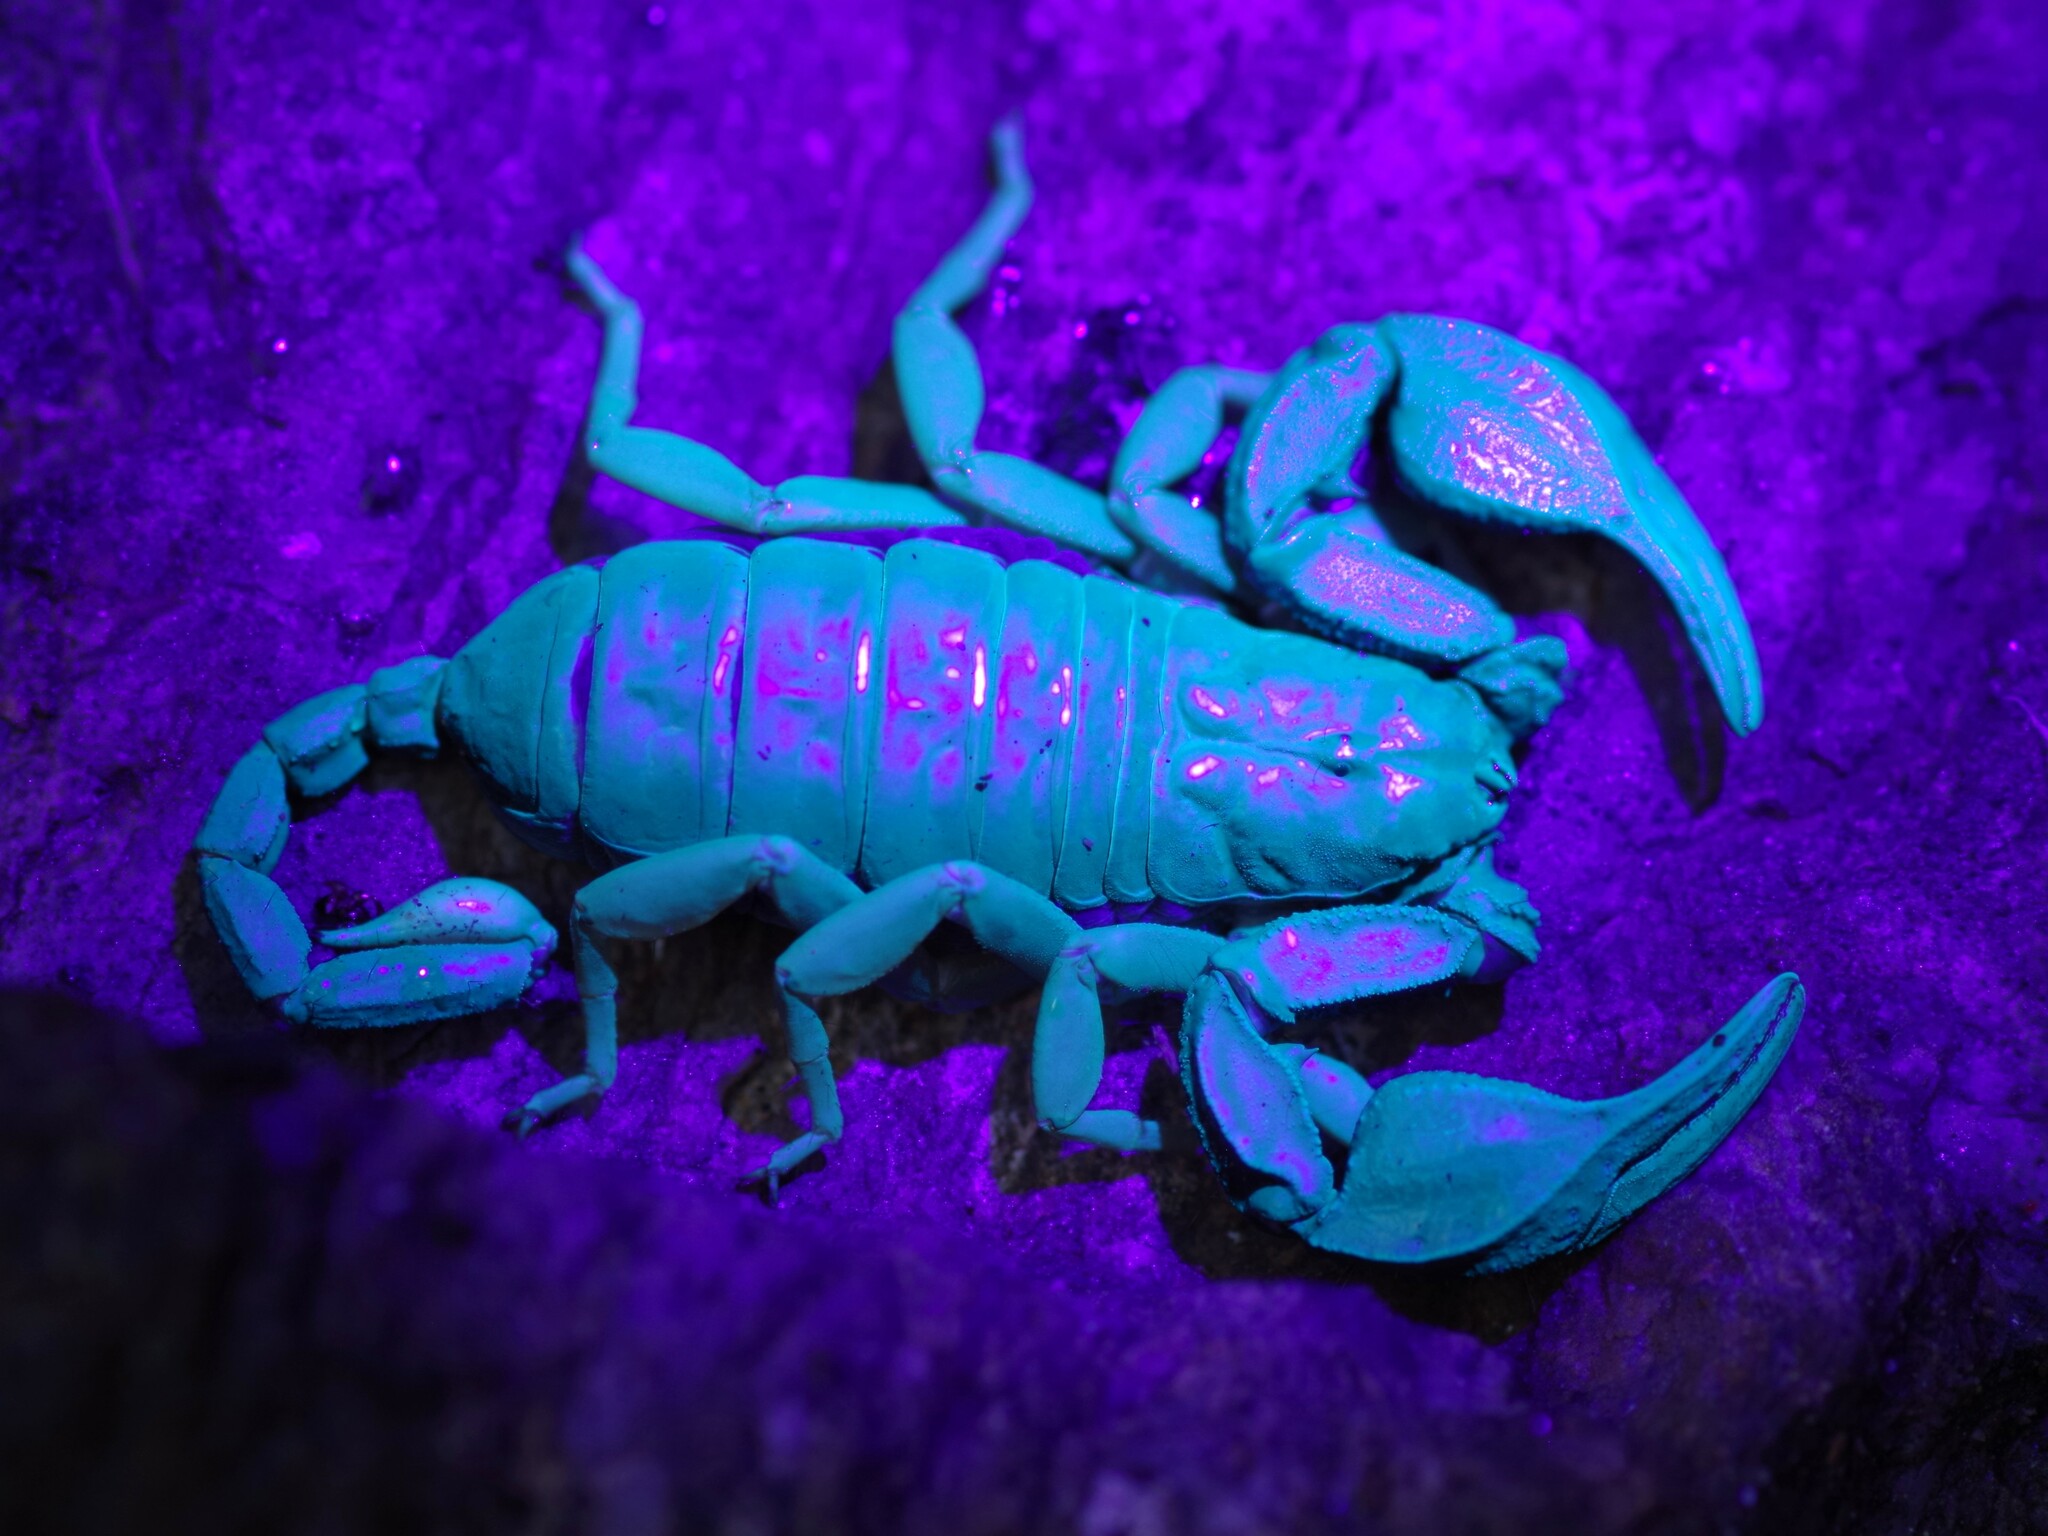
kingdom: Animalia
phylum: Arthropoda
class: Arachnida
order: Scorpiones
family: Euscorpiidae
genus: Euscorpius
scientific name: Euscorpius flavicaudis
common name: European yellow-tailed scorpion
